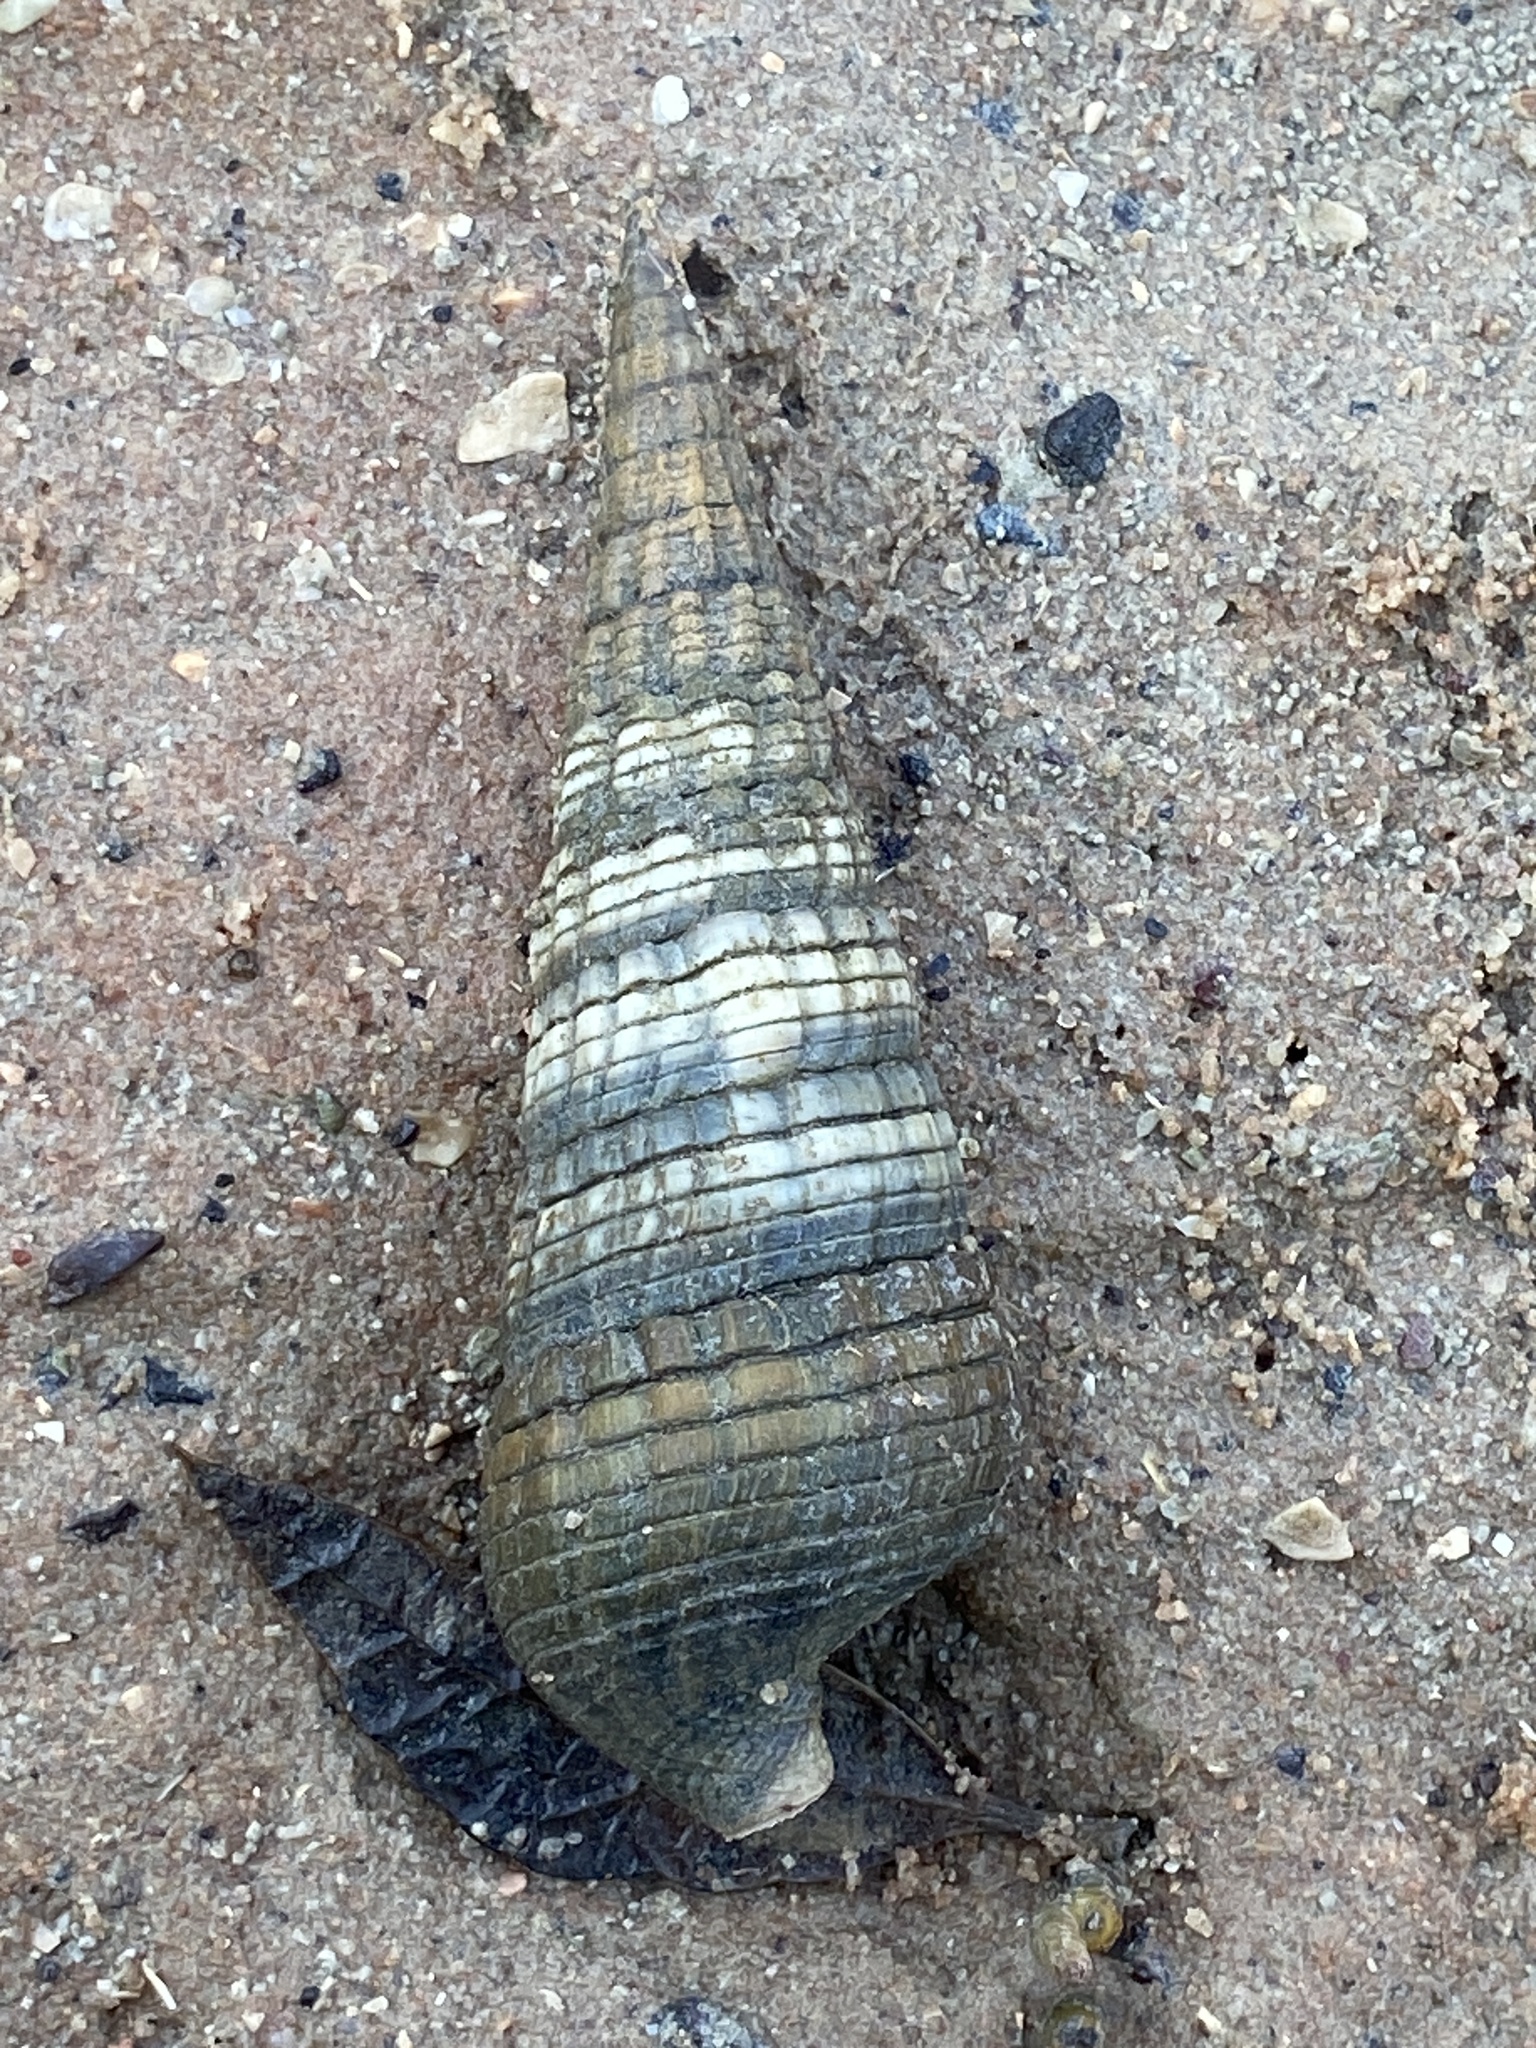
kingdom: Animalia
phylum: Mollusca
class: Gastropoda
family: Potamididae
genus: Terebralia
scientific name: Terebralia palustris
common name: Mangrove whelk
